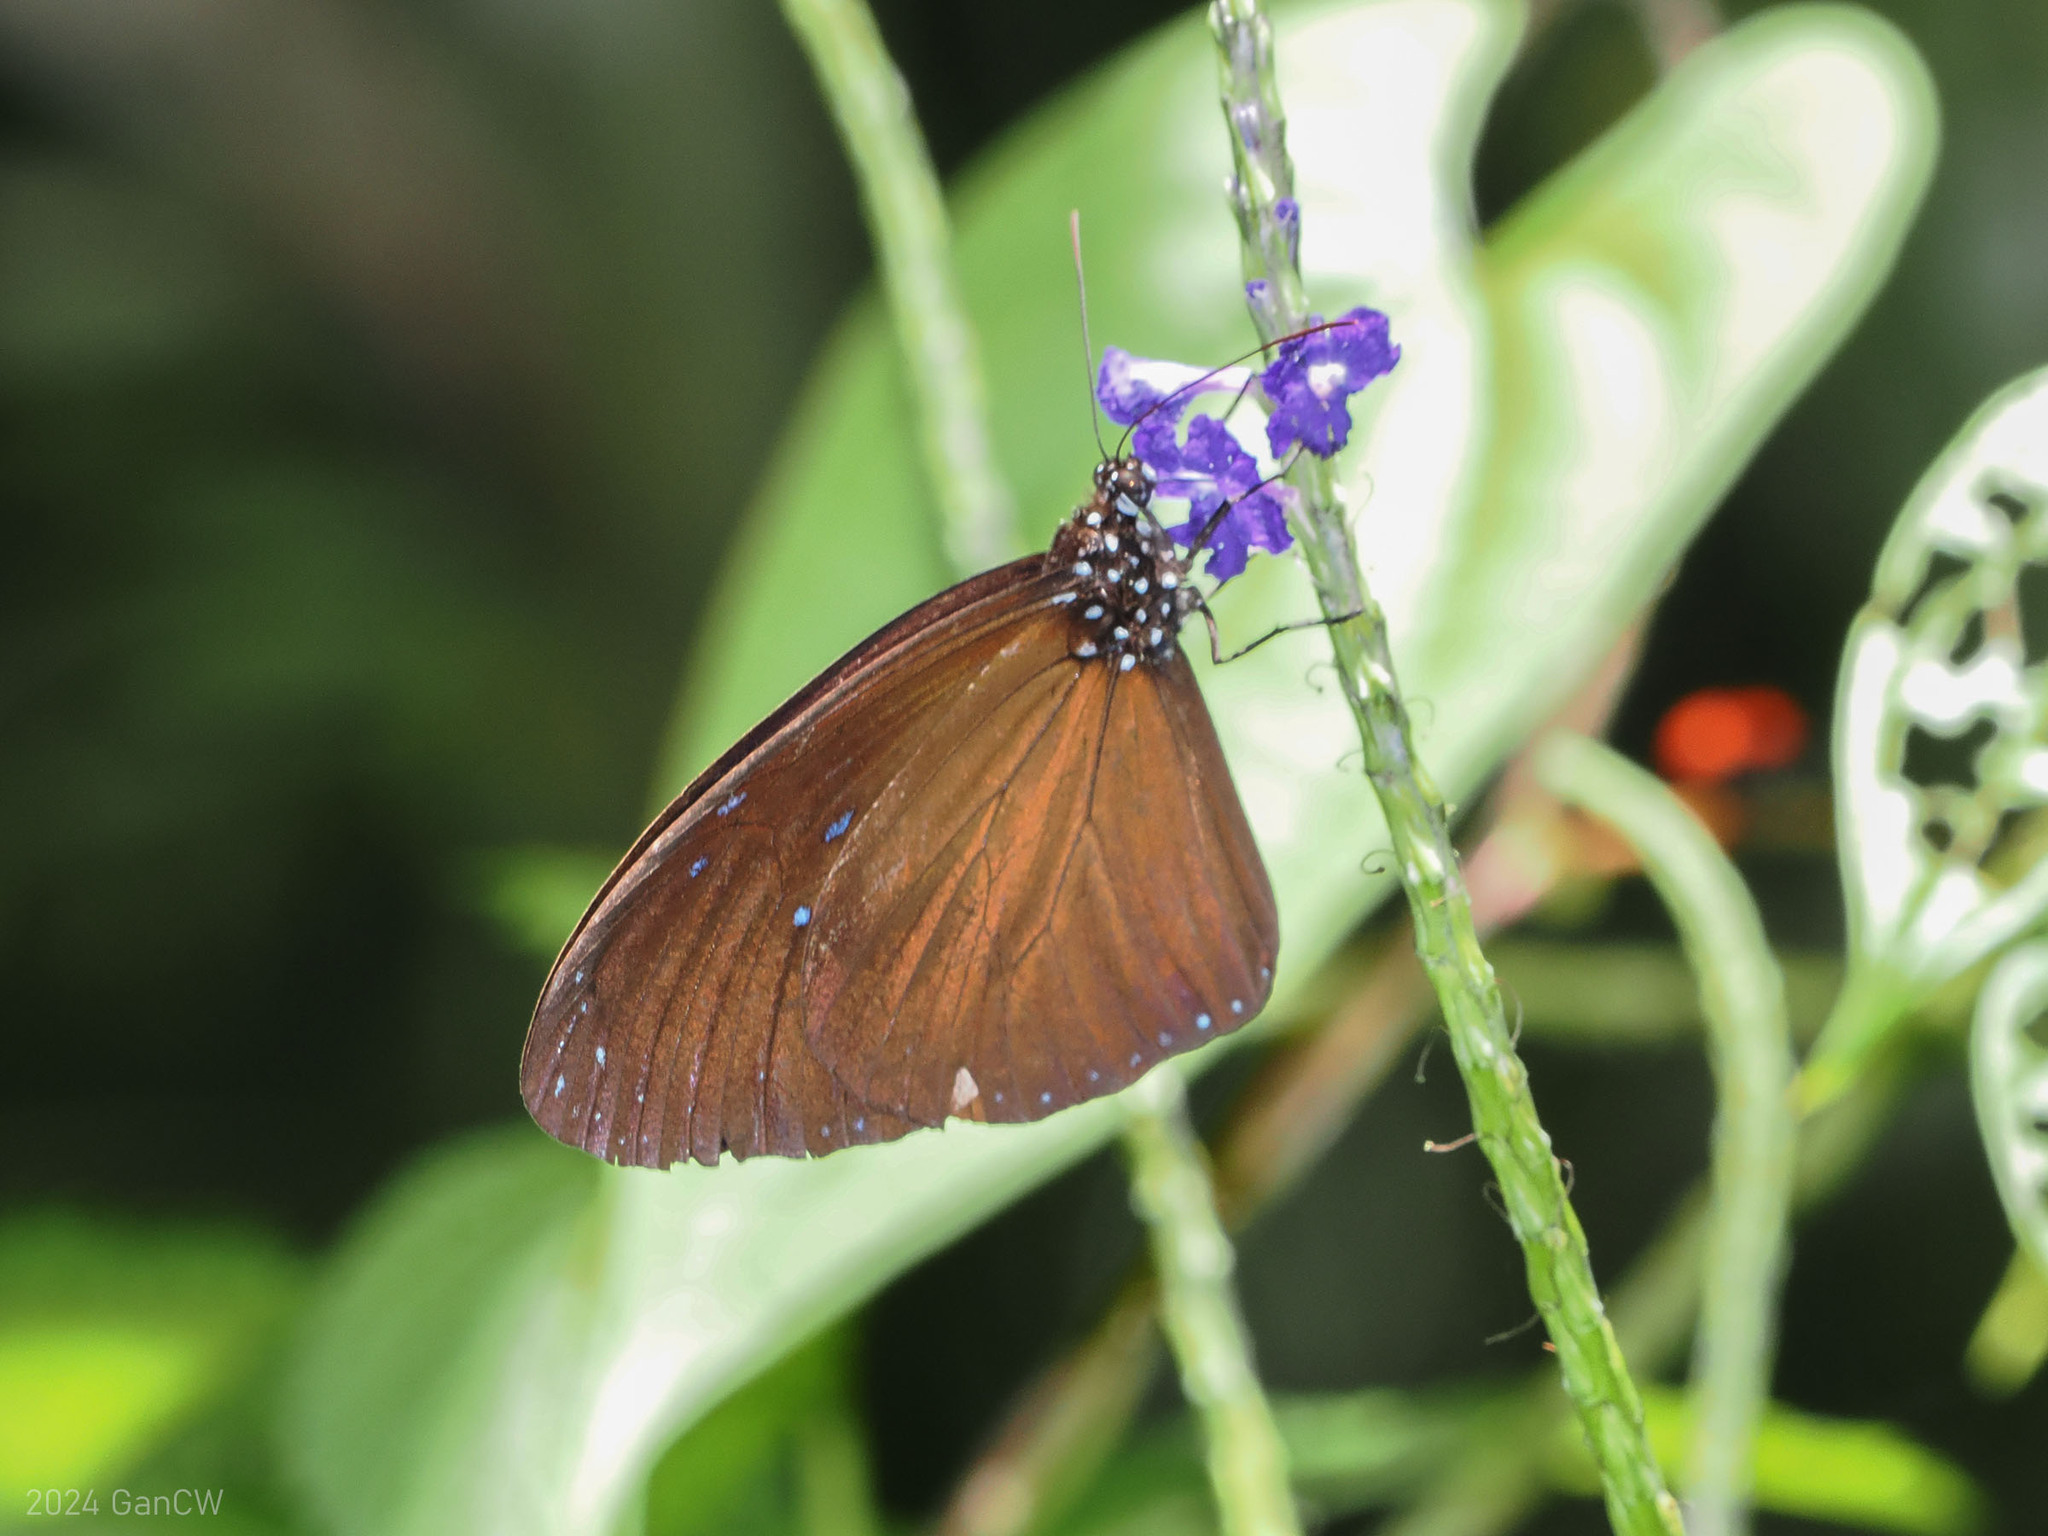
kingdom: Animalia
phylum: Arthropoda
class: Insecta
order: Lepidoptera
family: Nymphalidae
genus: Euploea
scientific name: Euploea mulciber
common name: Striped blue crow butterfly
